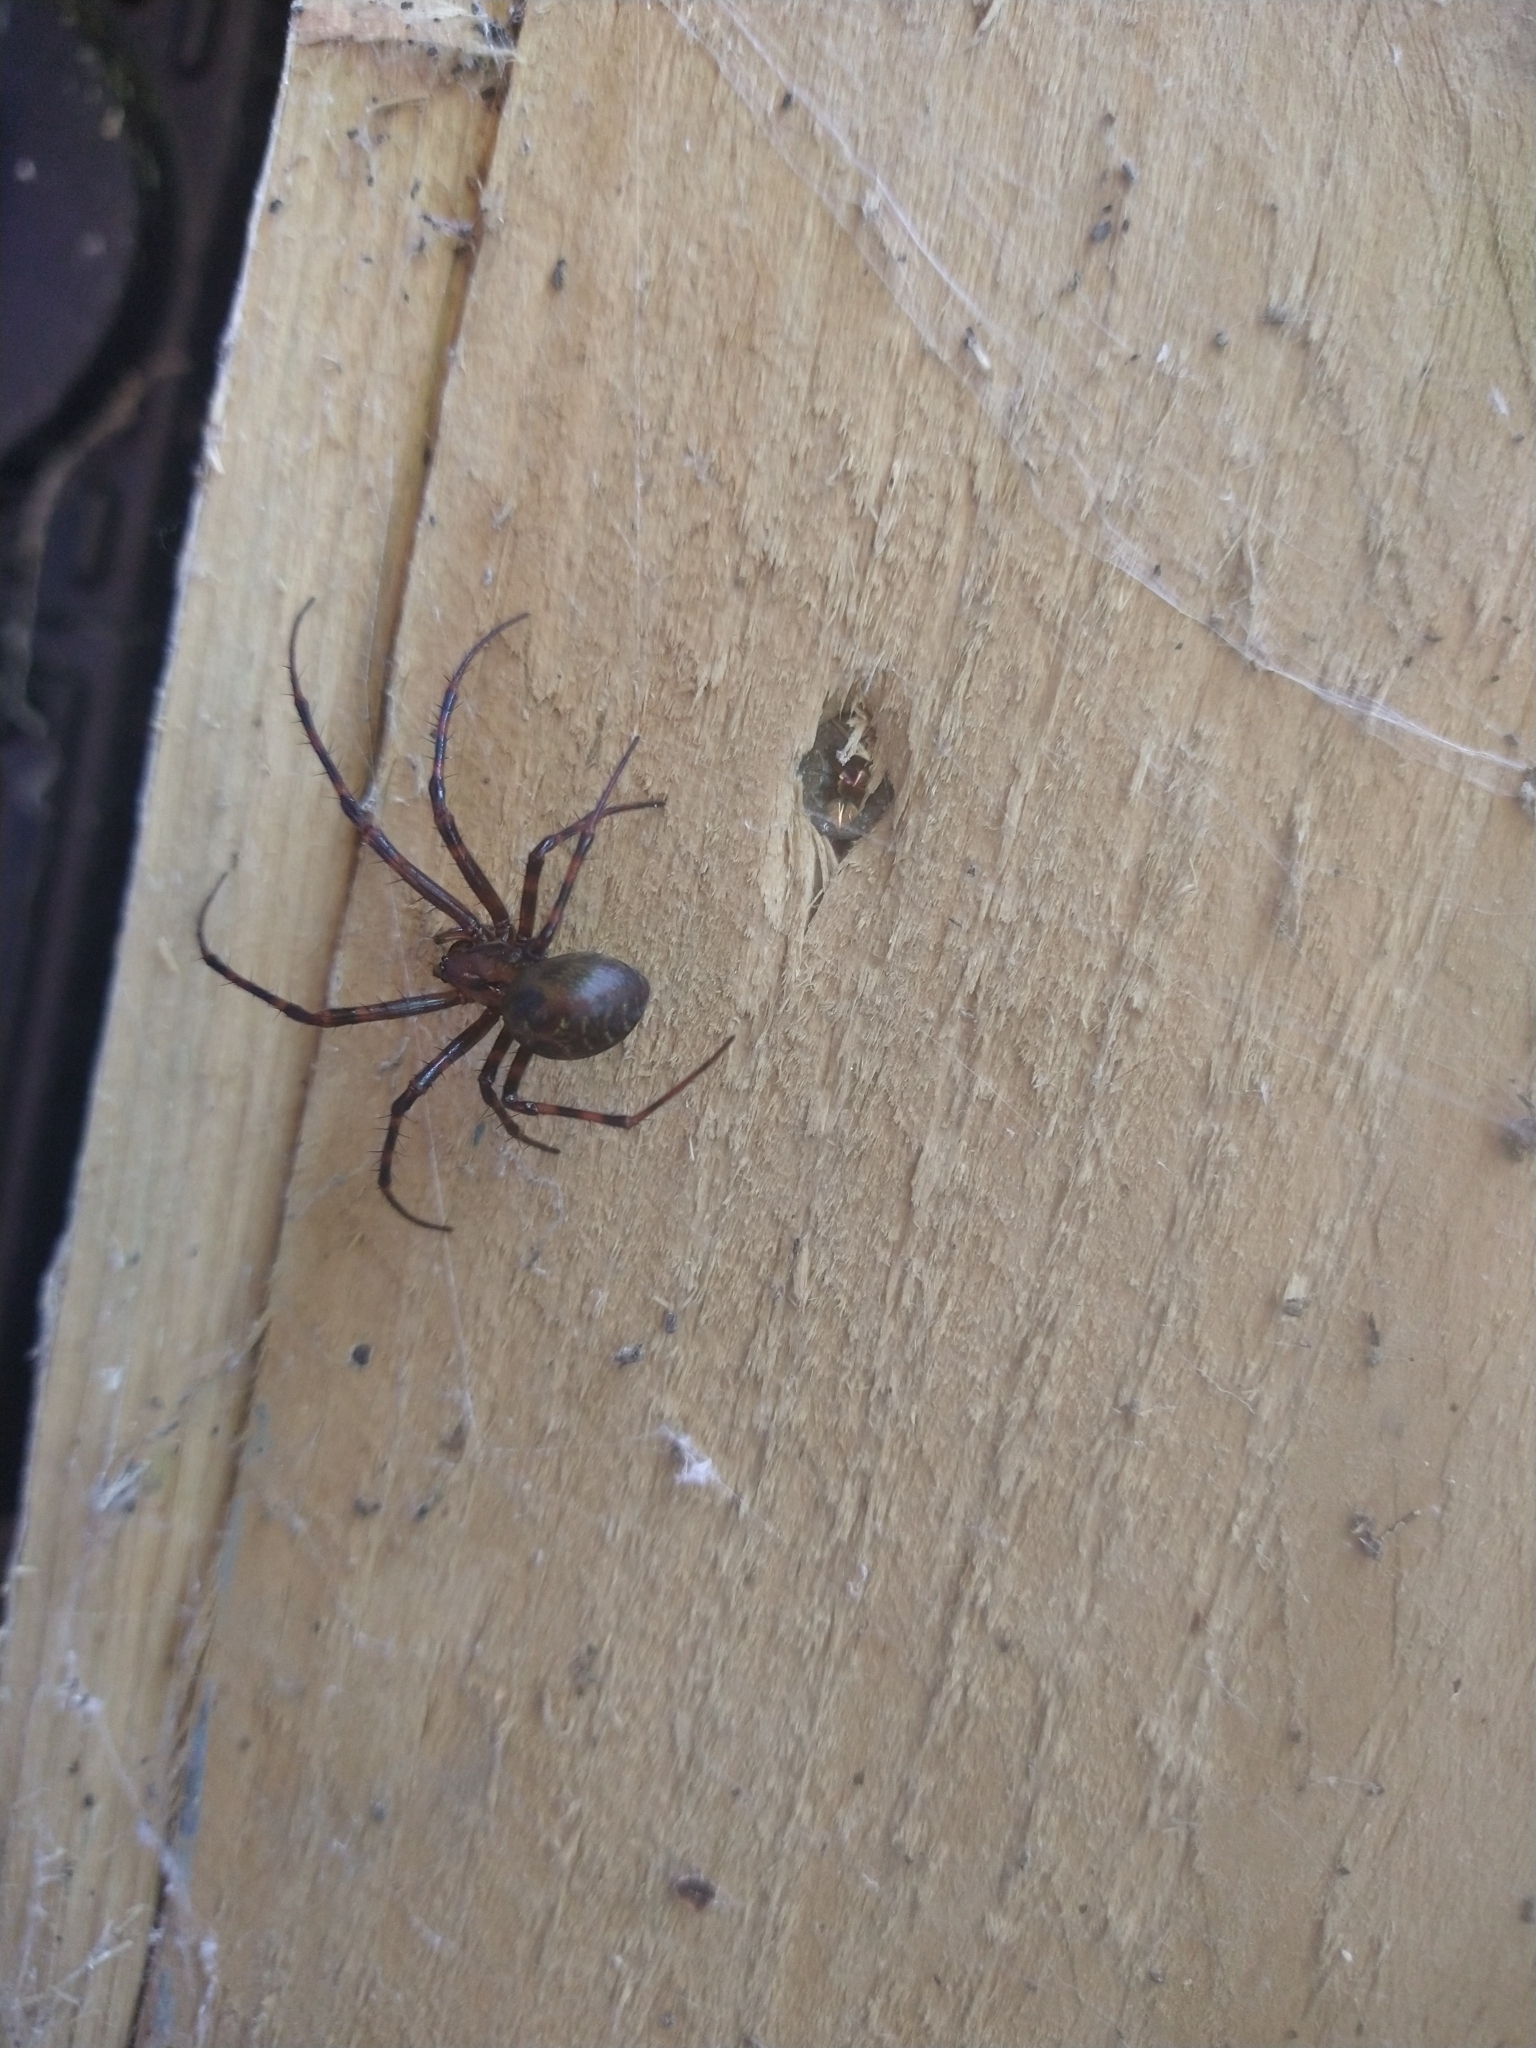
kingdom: Animalia
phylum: Arthropoda
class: Arachnida
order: Araneae
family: Tetragnathidae
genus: Meta
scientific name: Meta menardi
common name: Cave spider
